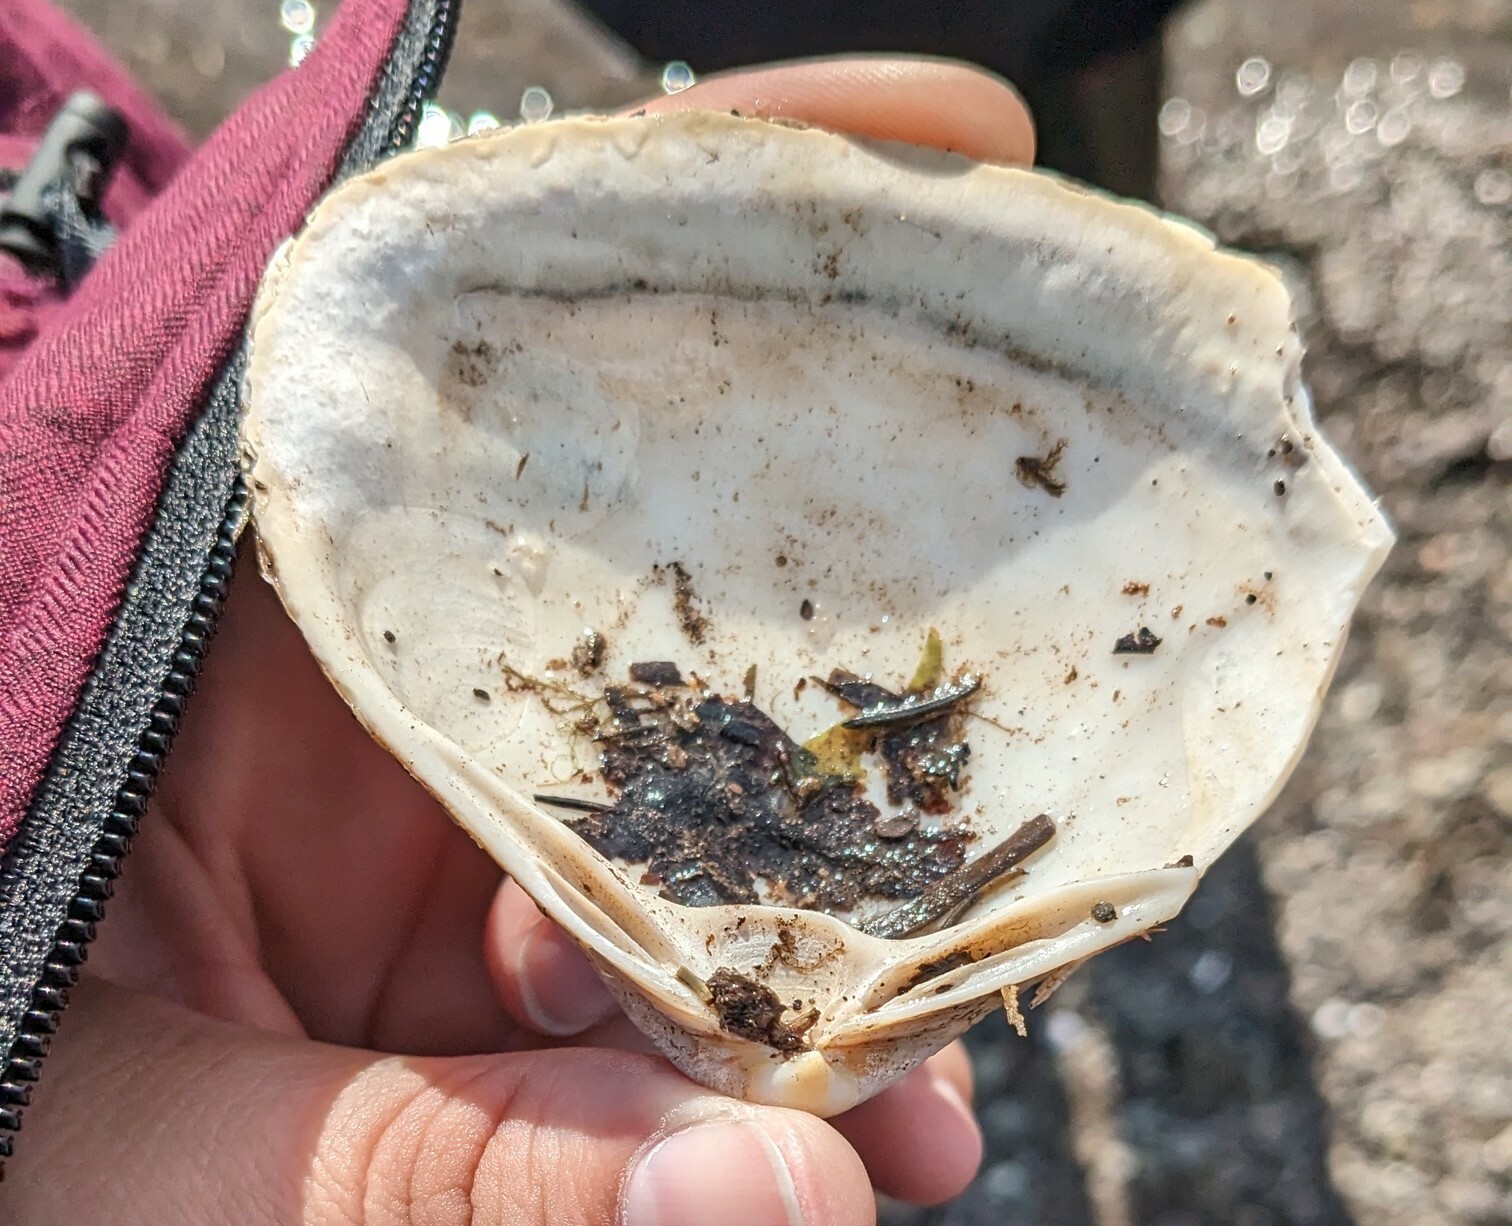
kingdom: Animalia
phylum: Mollusca
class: Bivalvia
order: Venerida
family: Mactridae
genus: Spisula
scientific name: Spisula solidissima
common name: Atlantic surf clam
